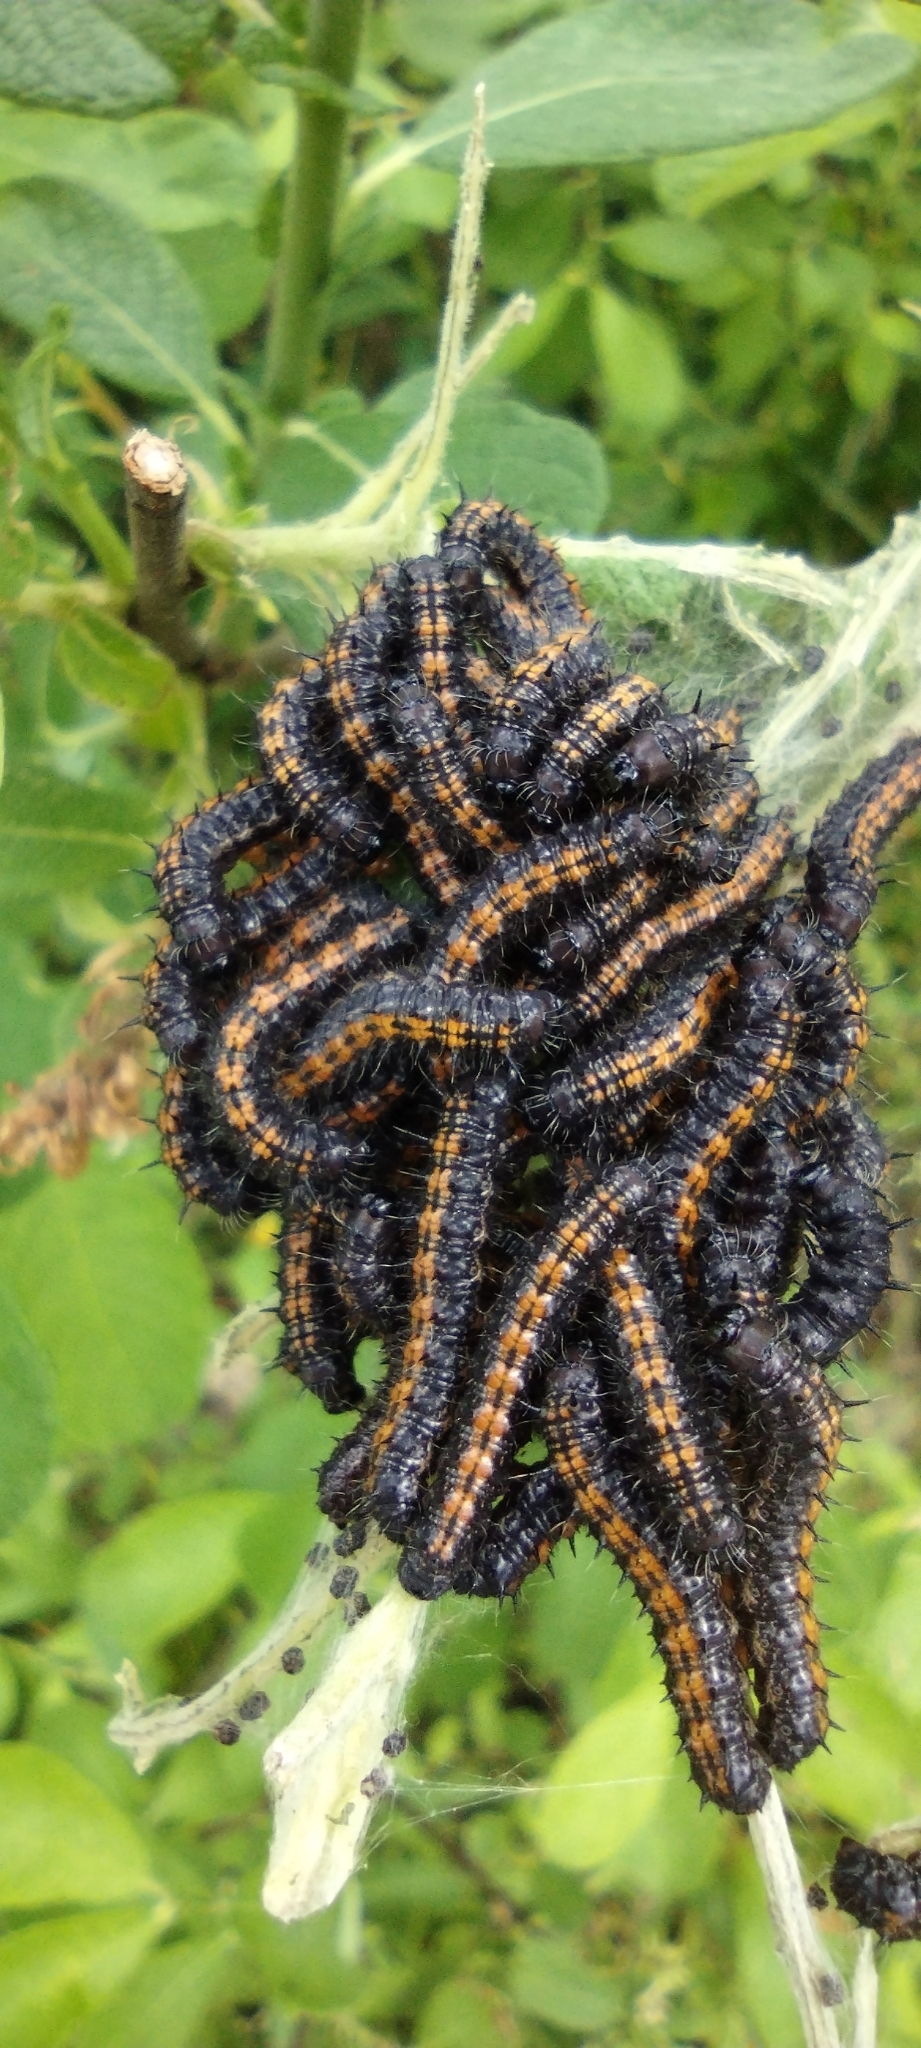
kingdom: Animalia
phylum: Arthropoda
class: Insecta
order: Lepidoptera
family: Nymphalidae
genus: Nymphalis
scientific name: Nymphalis antiopa
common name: Camberwell beauty
